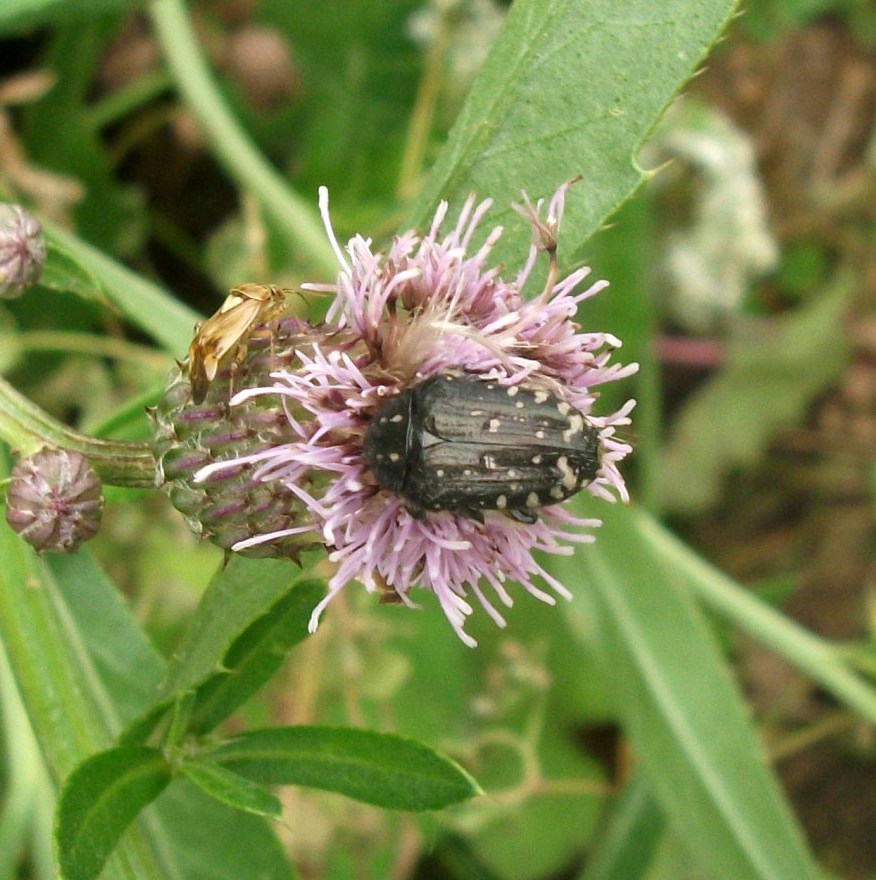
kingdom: Animalia
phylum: Arthropoda
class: Insecta
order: Coleoptera
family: Scarabaeidae
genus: Oxythyrea
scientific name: Oxythyrea funesta
